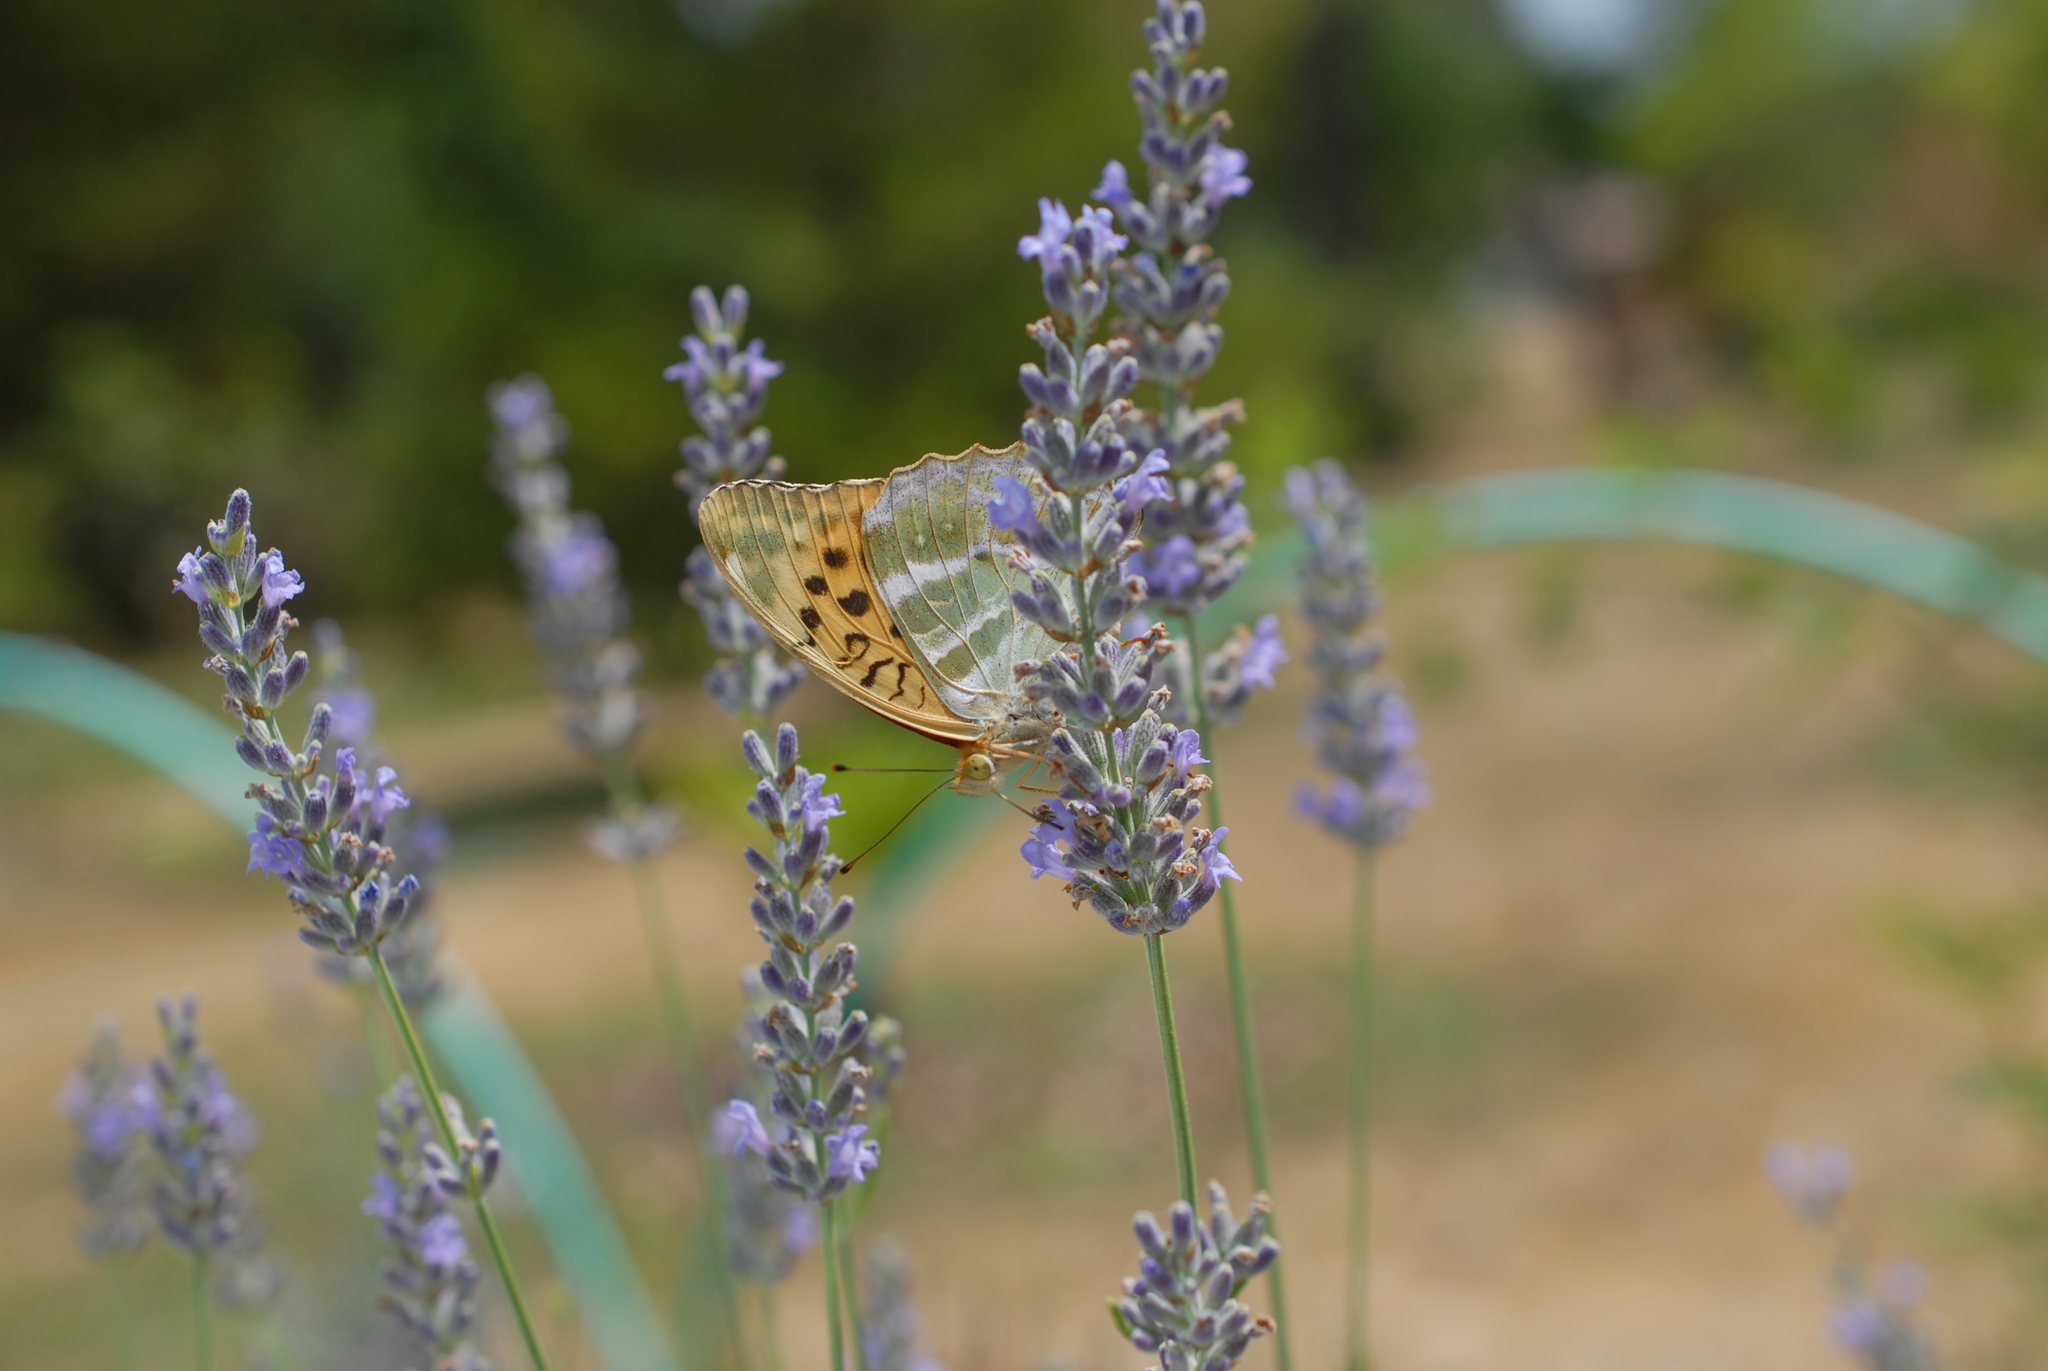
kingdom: Animalia
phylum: Arthropoda
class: Insecta
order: Lepidoptera
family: Nymphalidae
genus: Argynnis
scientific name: Argynnis paphia
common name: Silver-washed fritillary
